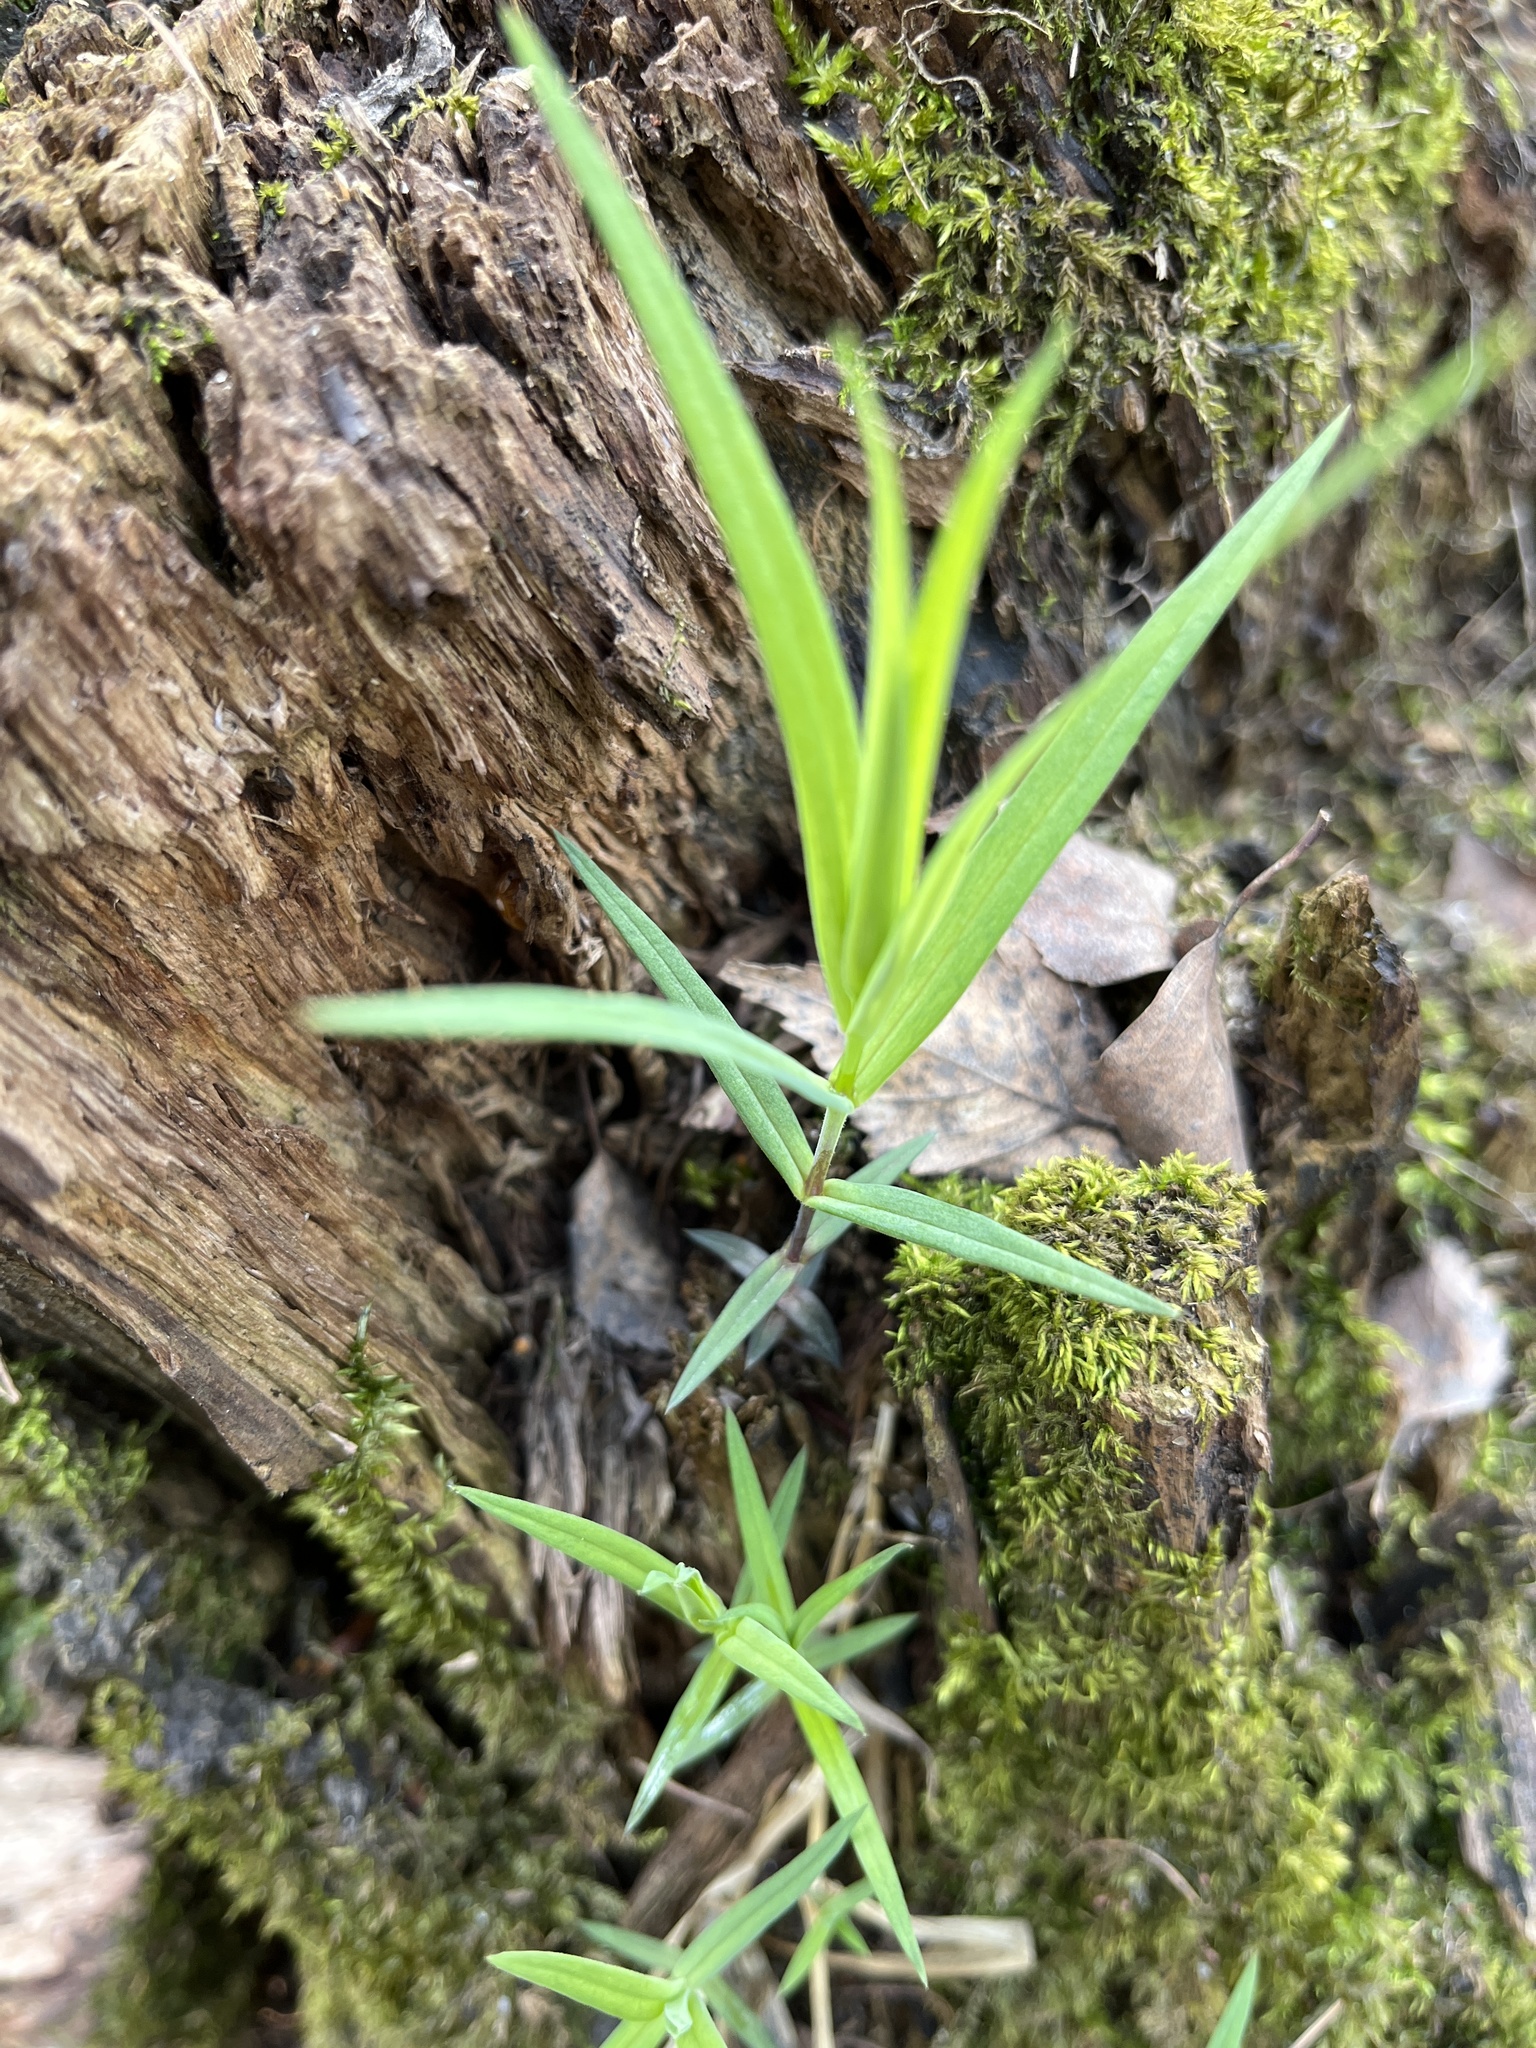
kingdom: Plantae
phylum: Tracheophyta
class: Magnoliopsida
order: Caryophyllales
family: Caryophyllaceae
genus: Rabelera
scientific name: Rabelera holostea
